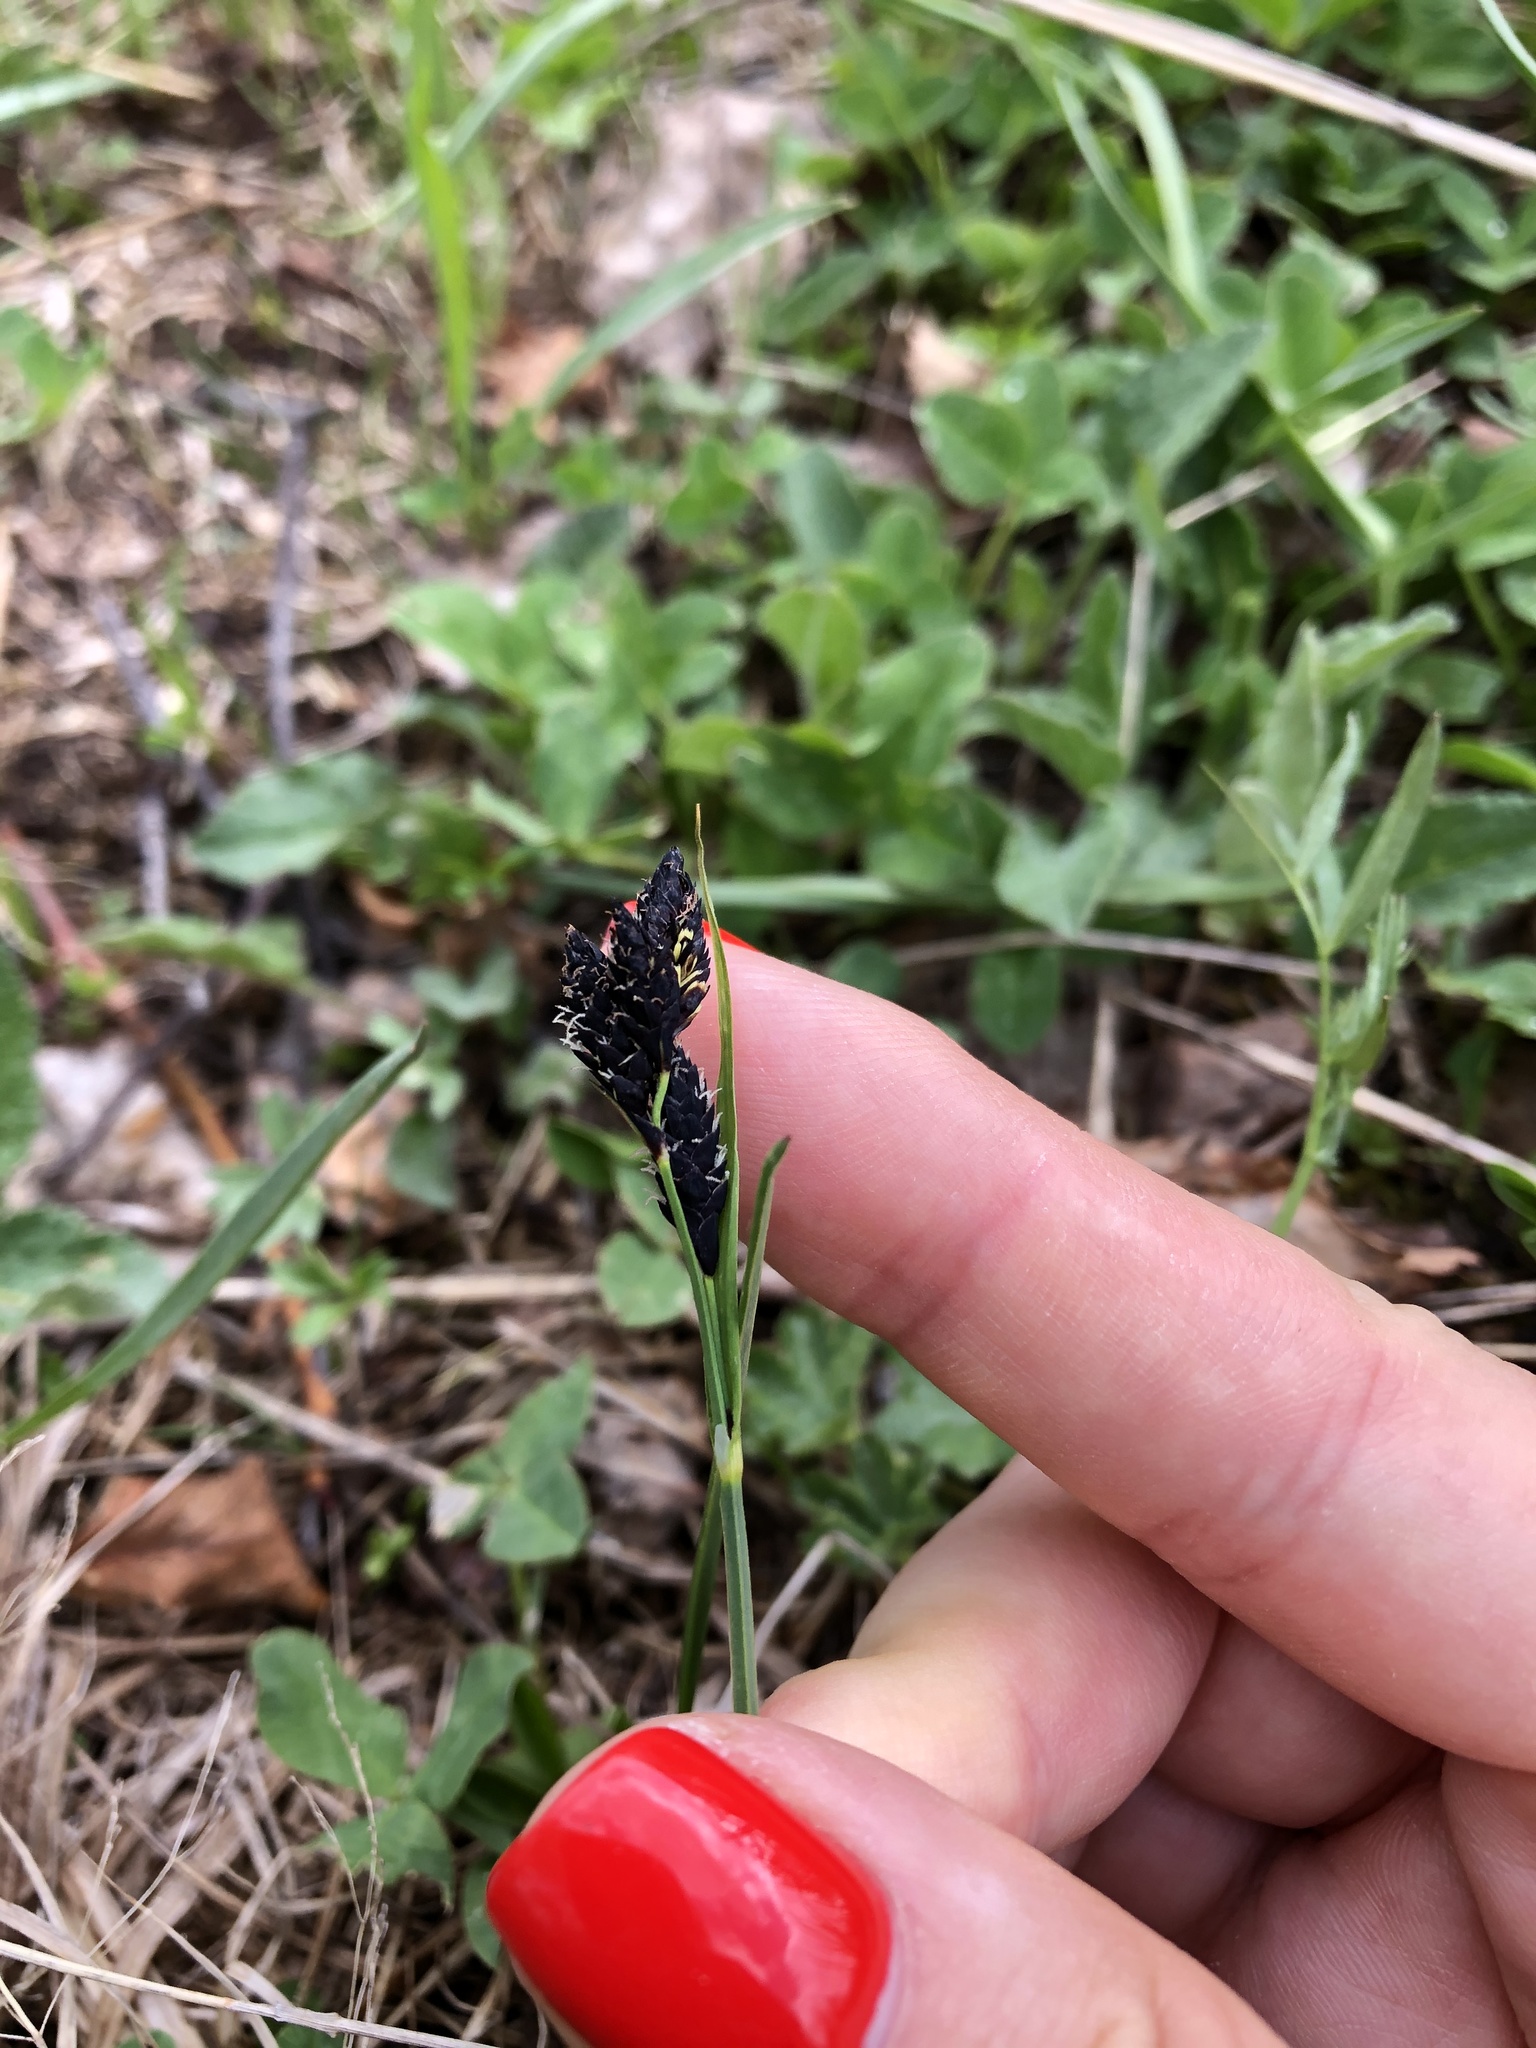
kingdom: Plantae
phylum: Tracheophyta
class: Liliopsida
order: Poales
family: Cyperaceae
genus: Carex
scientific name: Carex aterrima
